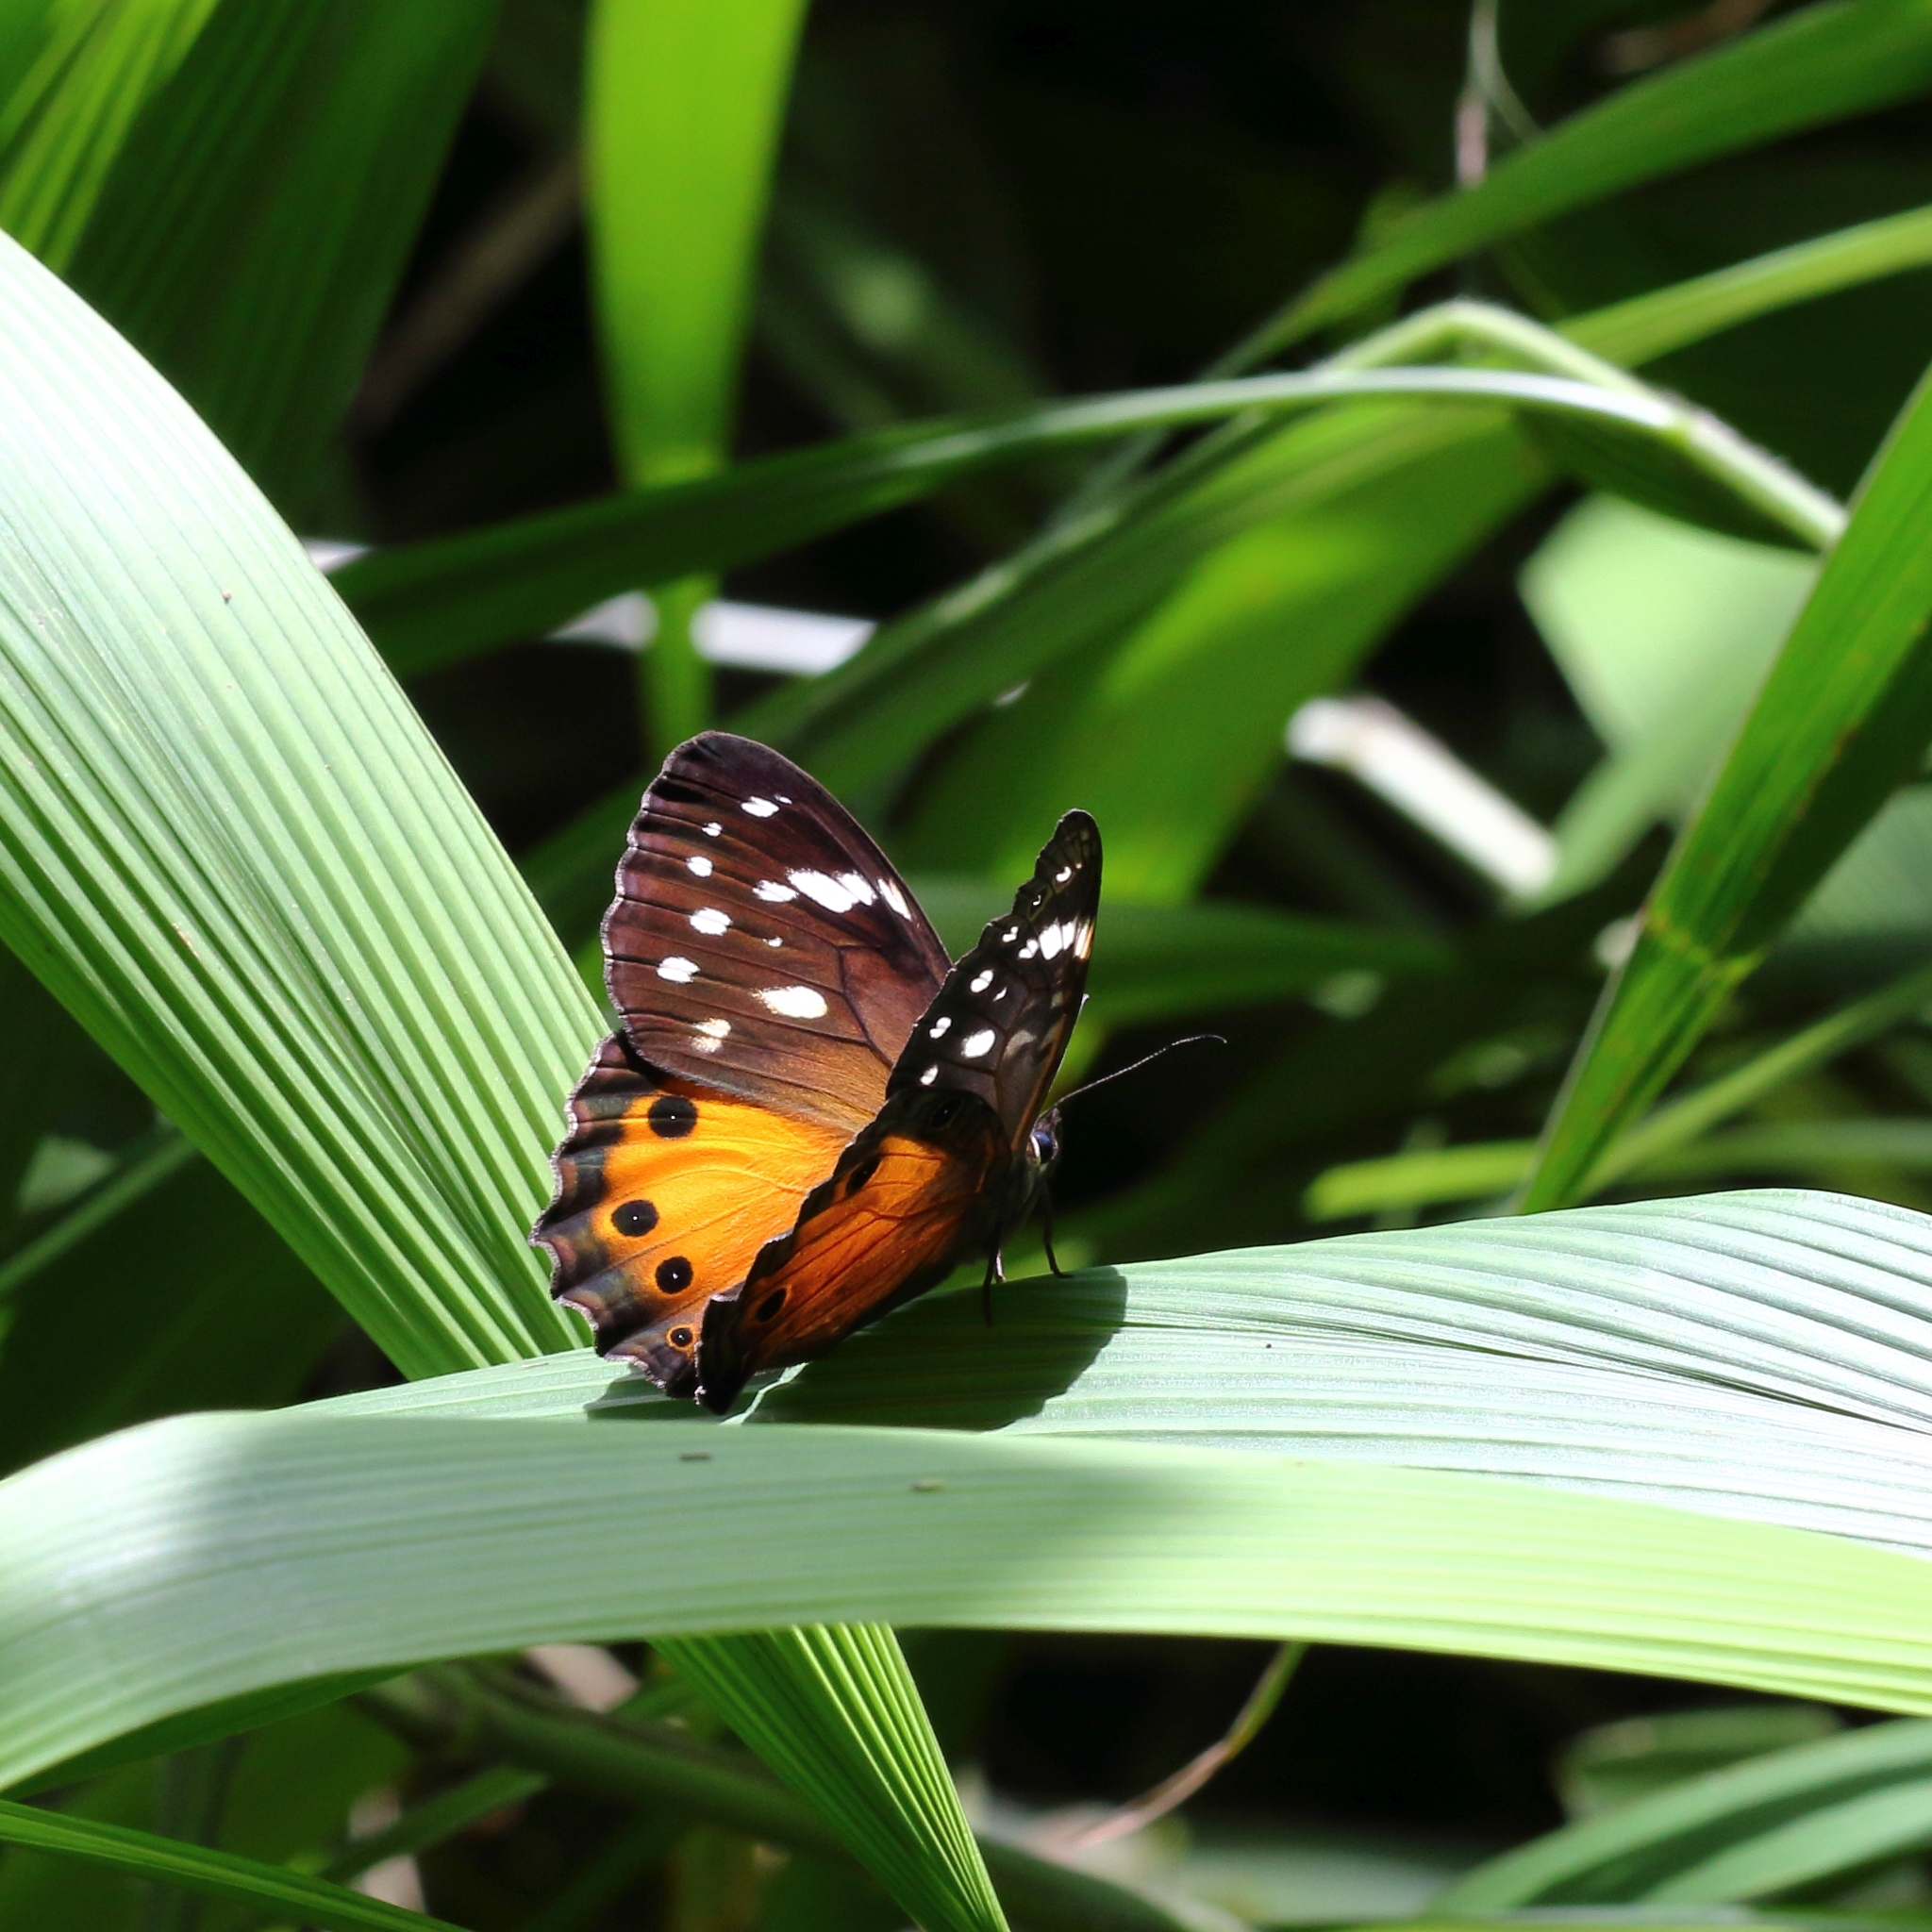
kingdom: Animalia
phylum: Arthropoda
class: Insecta
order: Lepidoptera
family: Nymphalidae
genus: Paralethe
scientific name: Paralethe dendrophilus
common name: Bush beauty
